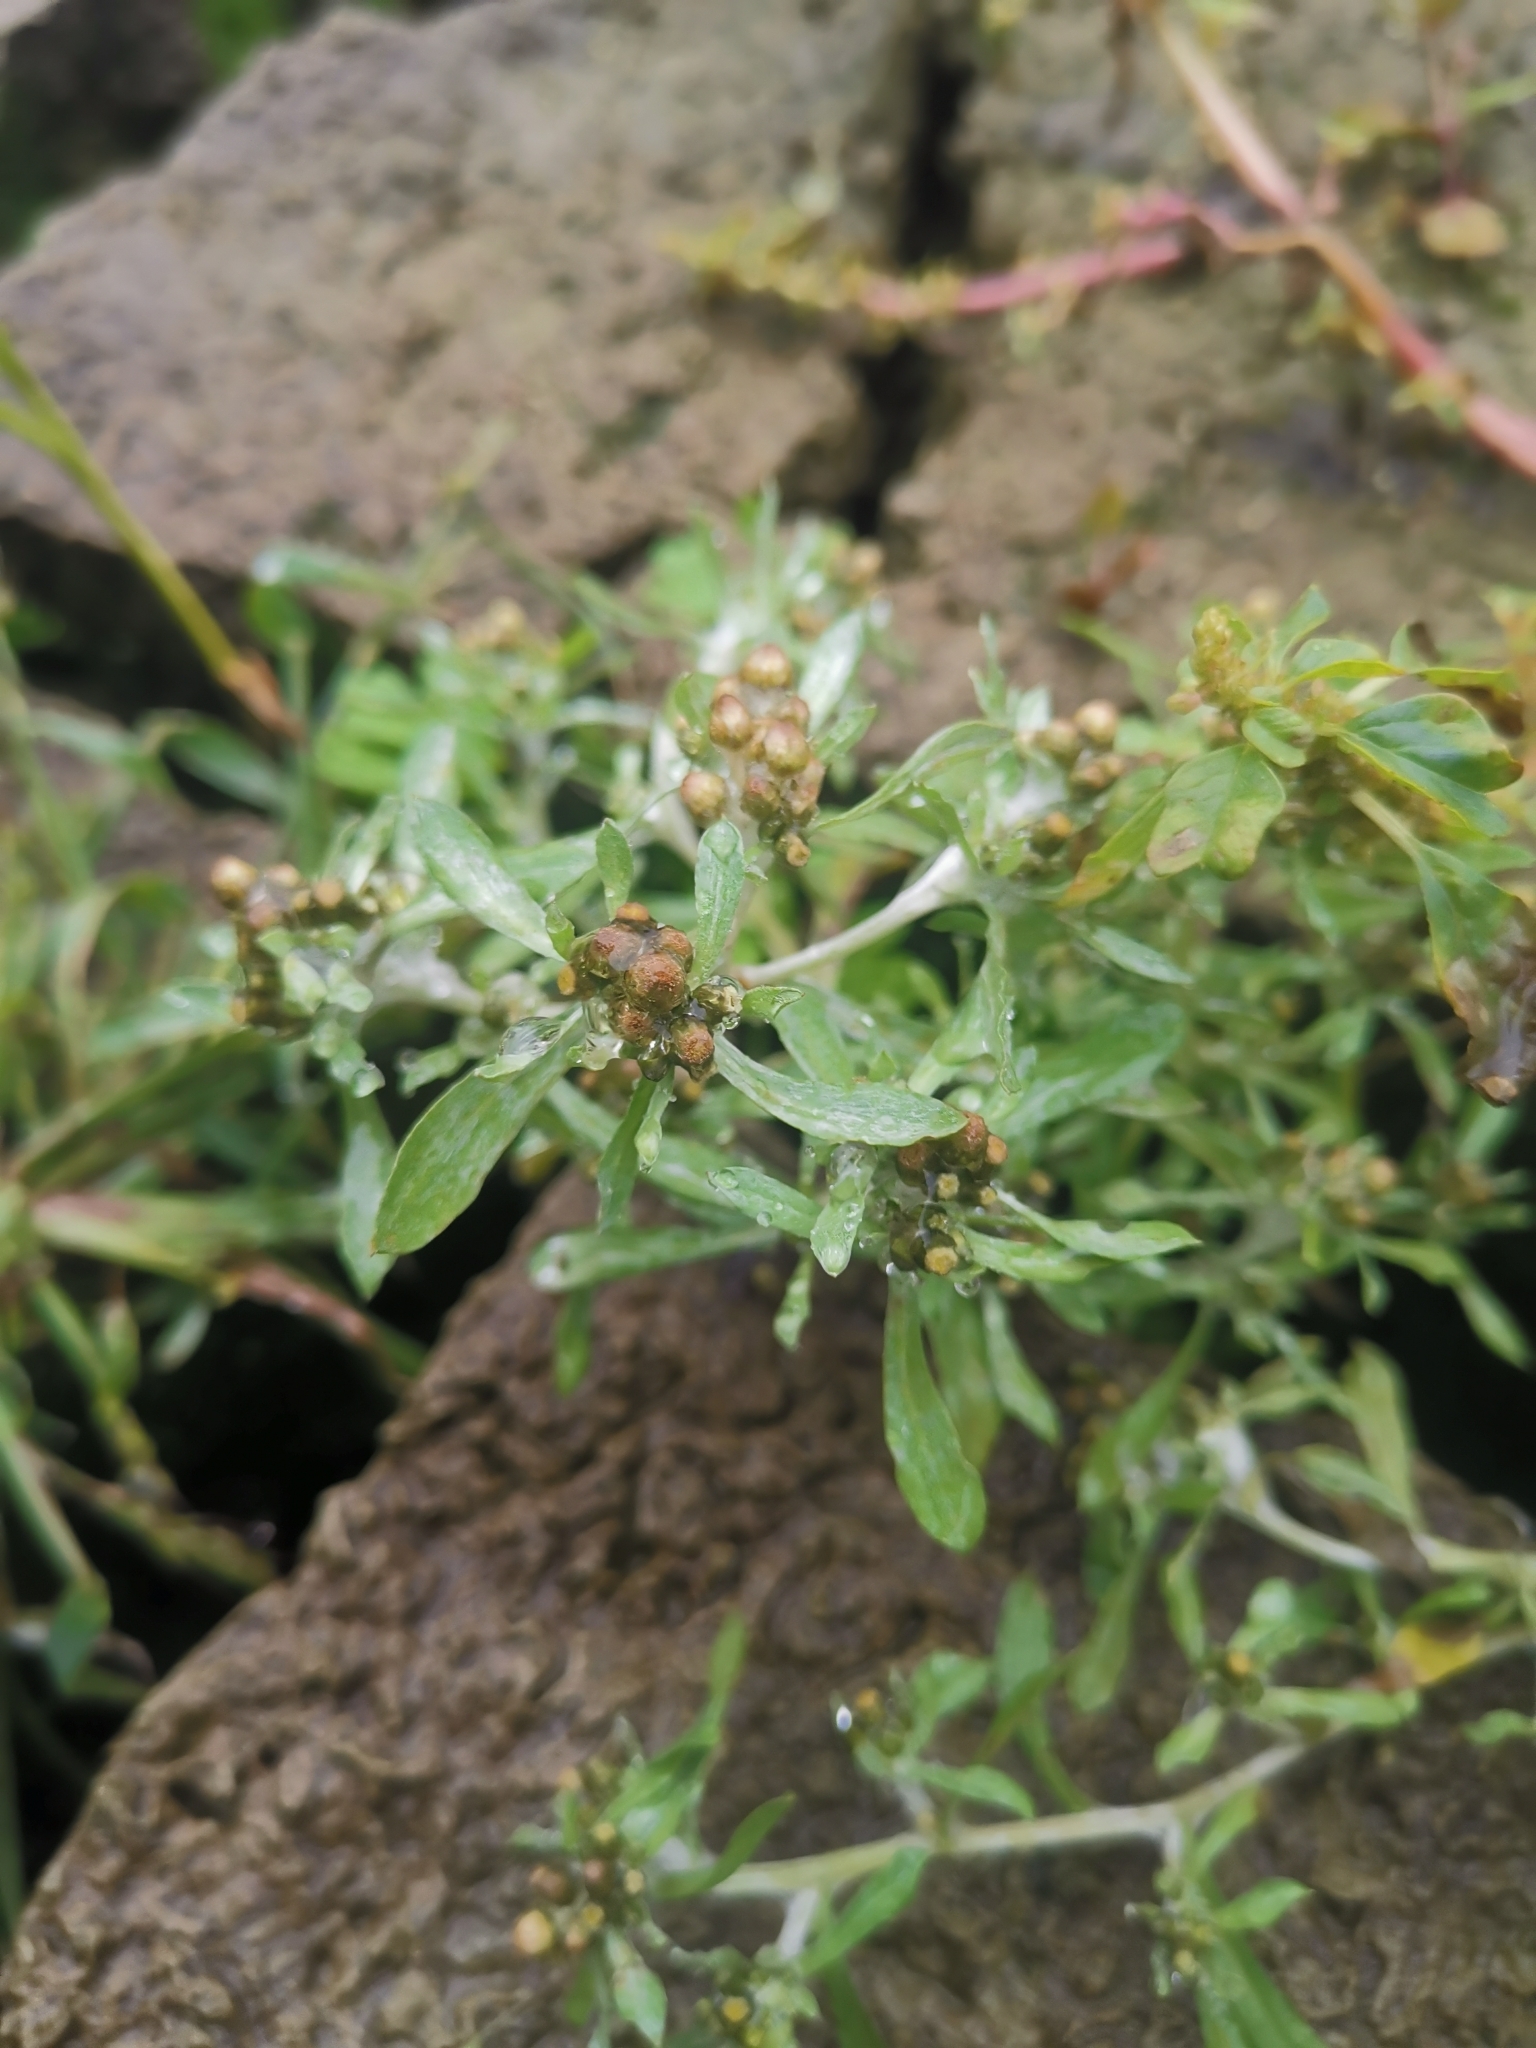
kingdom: Plantae
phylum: Tracheophyta
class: Magnoliopsida
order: Asterales
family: Asteraceae
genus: Gnaphalium
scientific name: Gnaphalium uliginosum
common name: Marsh cudweed
